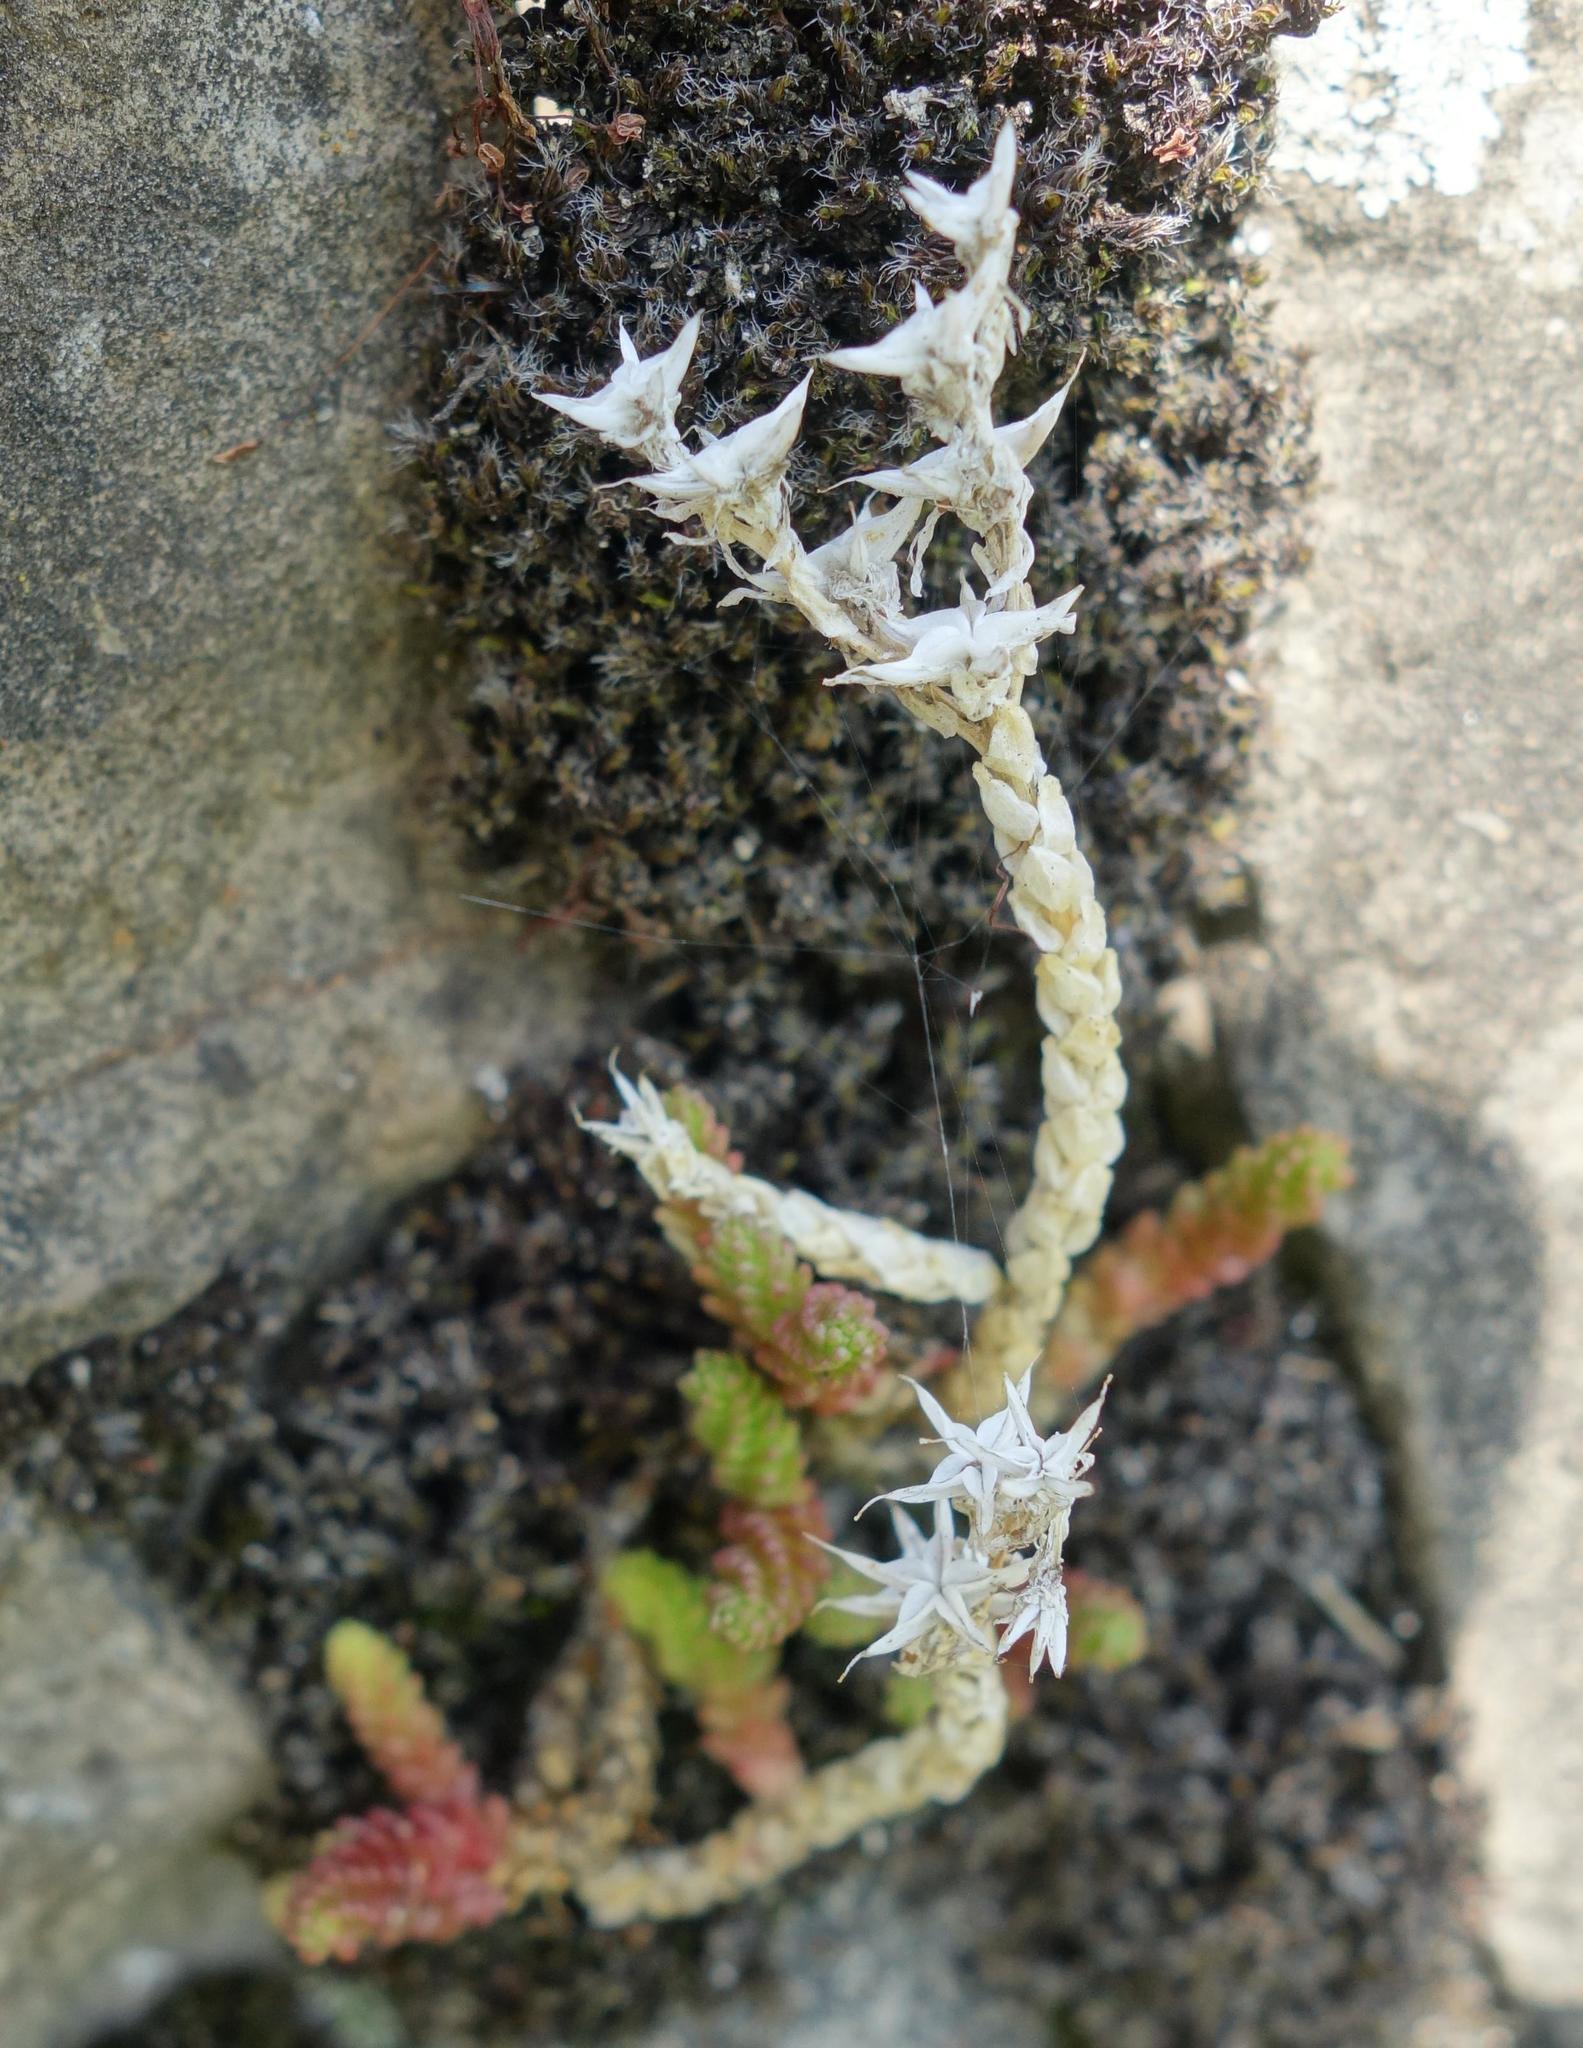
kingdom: Plantae
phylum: Tracheophyta
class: Magnoliopsida
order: Saxifragales
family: Crassulaceae
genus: Sedum
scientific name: Sedum acre
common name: Biting stonecrop
